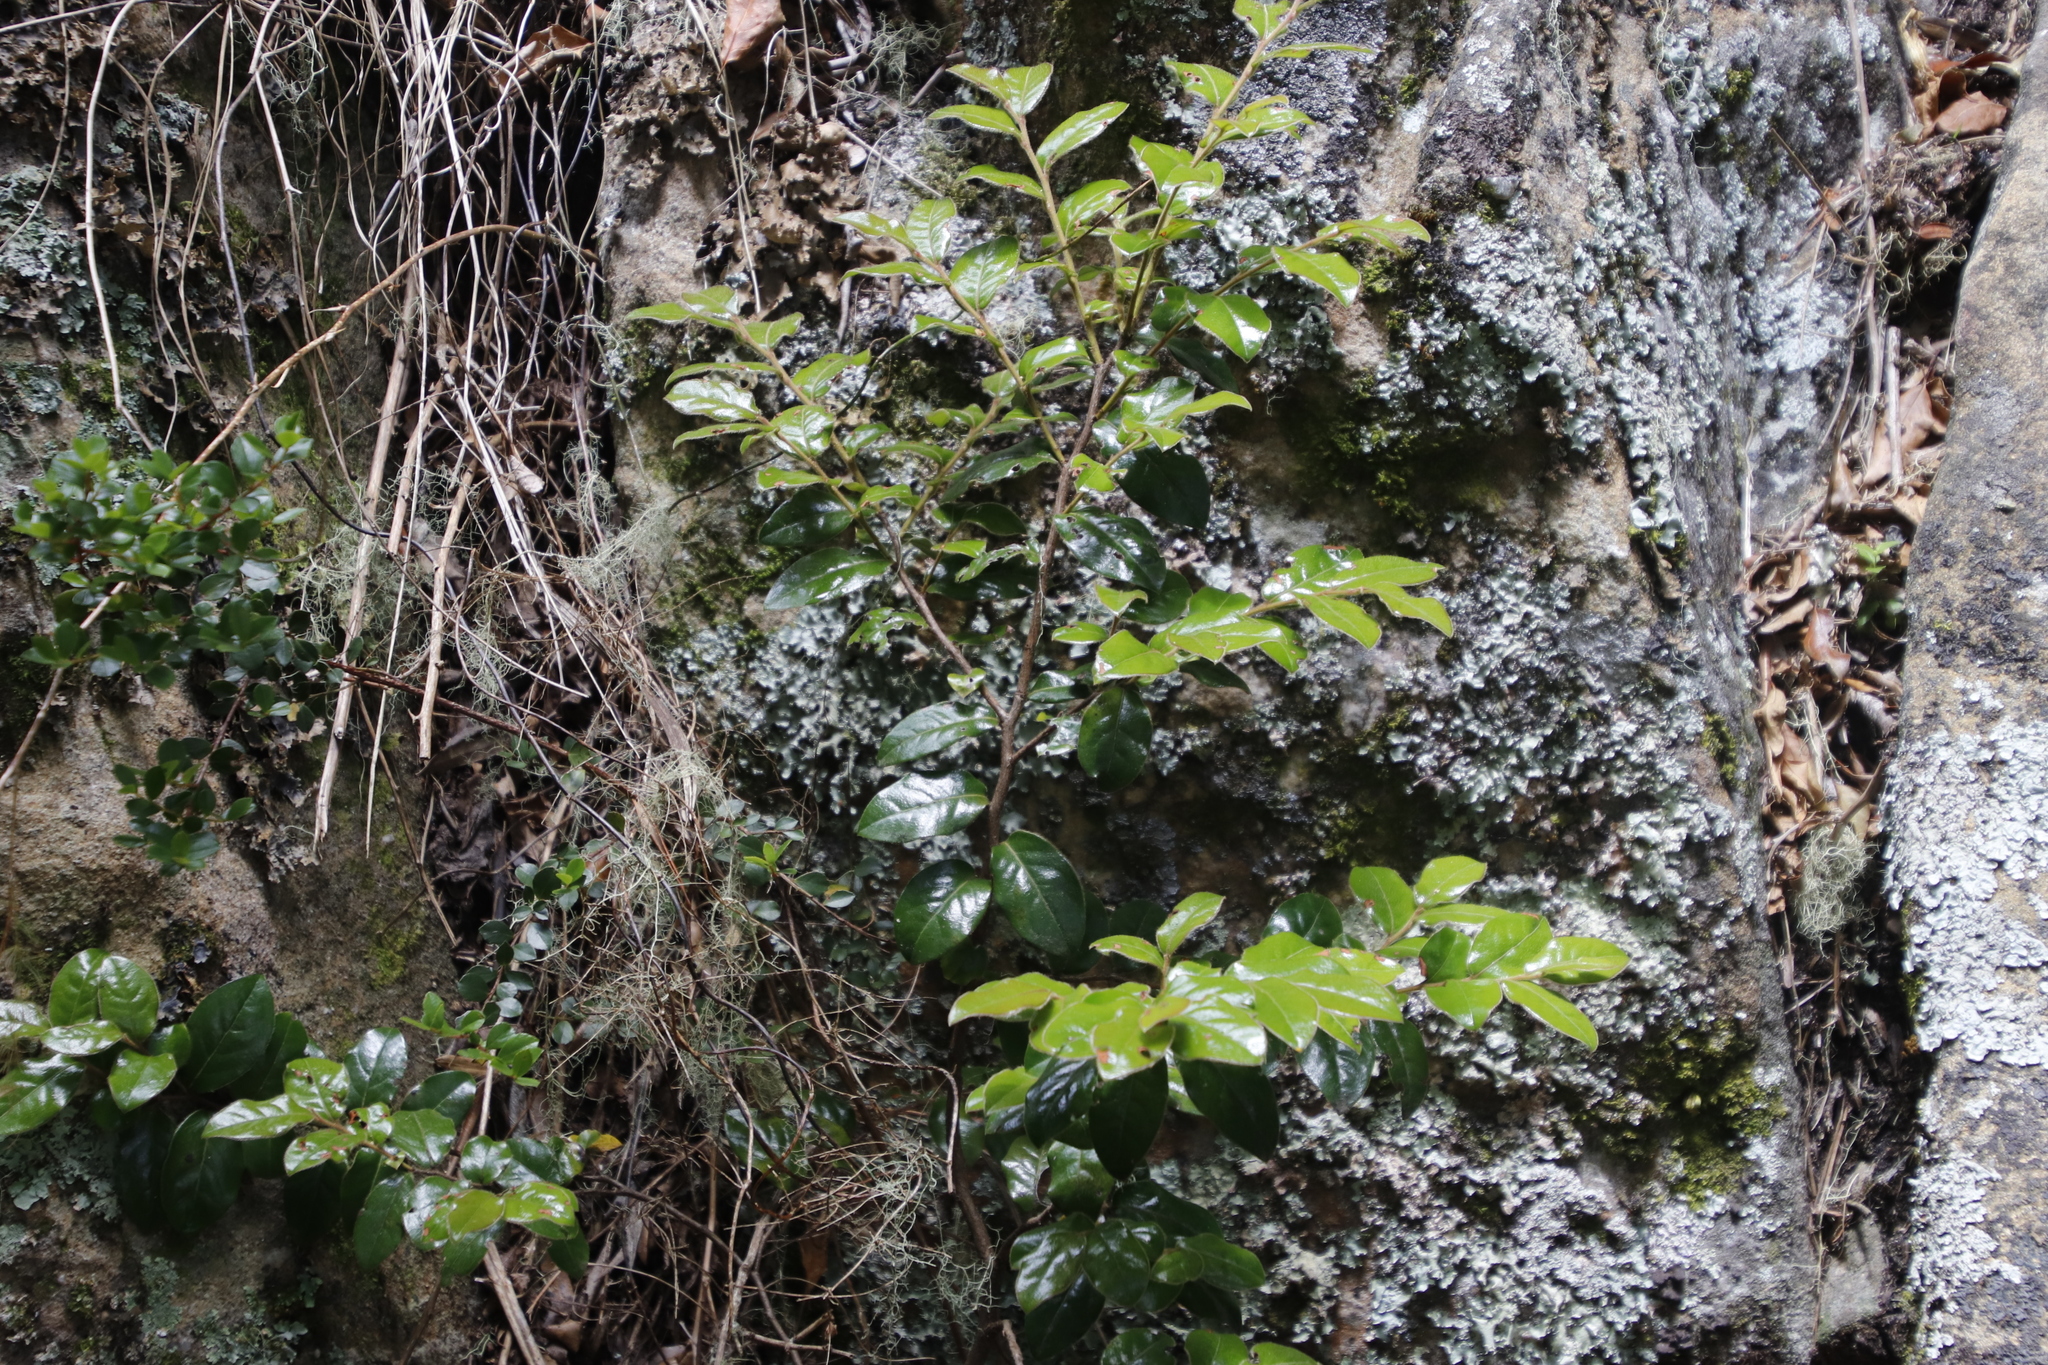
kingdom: Plantae
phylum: Tracheophyta
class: Magnoliopsida
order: Ericales
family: Ebenaceae
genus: Diospyros
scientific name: Diospyros whyteana
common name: Bladder-nut
